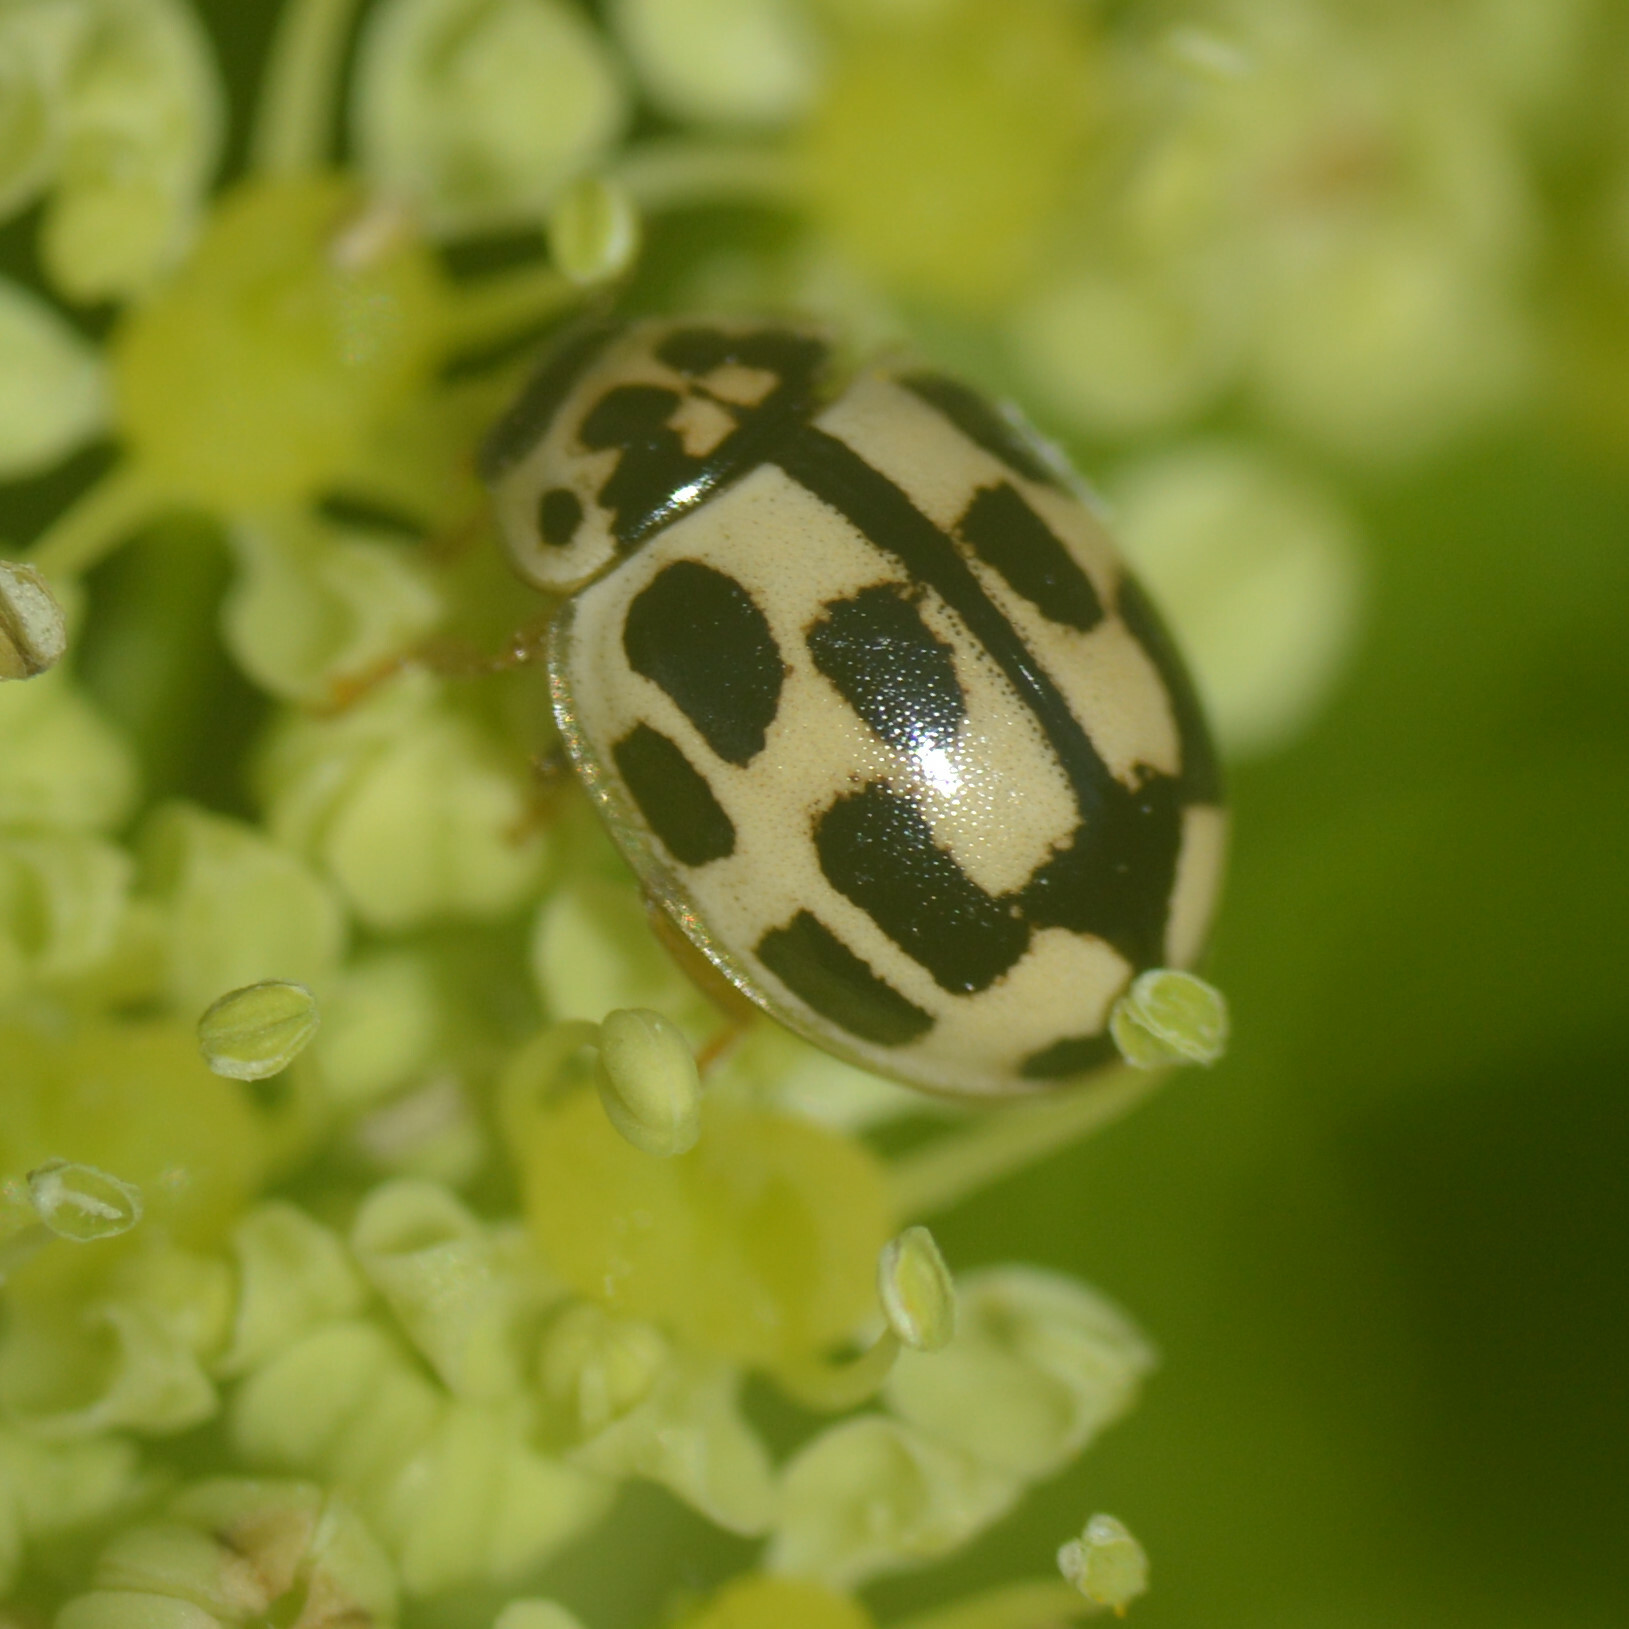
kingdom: Animalia
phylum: Arthropoda
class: Insecta
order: Coleoptera
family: Coccinellidae
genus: Propylaea
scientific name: Propylaea quatuordecimpunctata
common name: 14-spotted ladybird beetle
